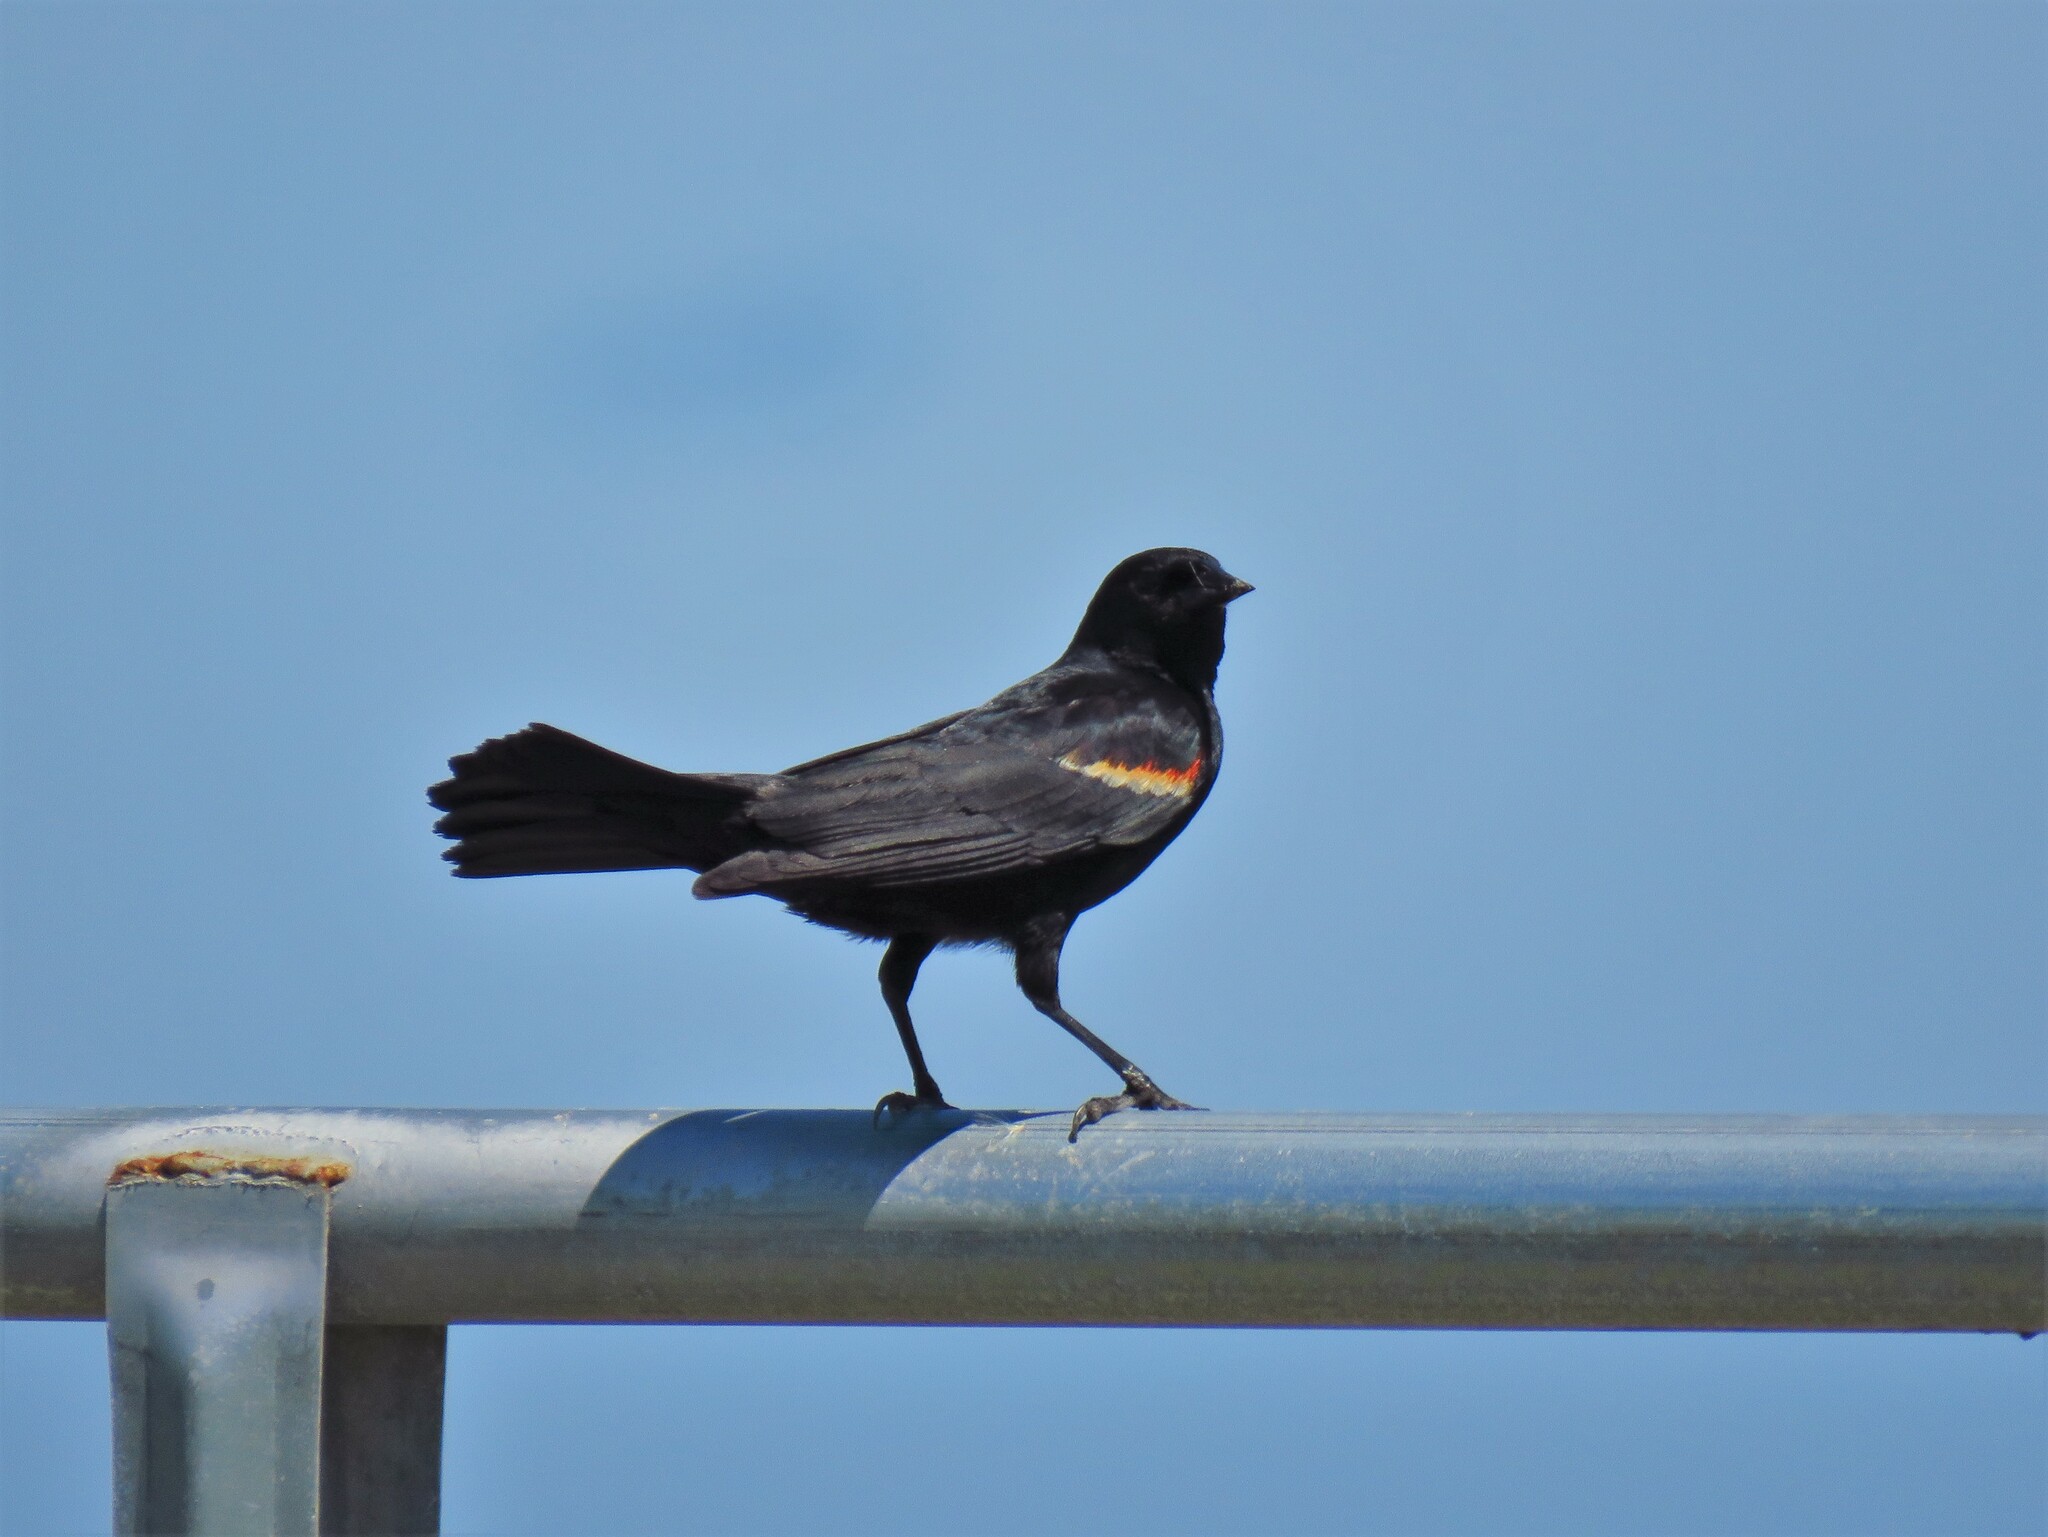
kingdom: Animalia
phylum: Chordata
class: Aves
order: Passeriformes
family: Icteridae
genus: Agelaius
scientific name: Agelaius phoeniceus
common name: Red-winged blackbird
